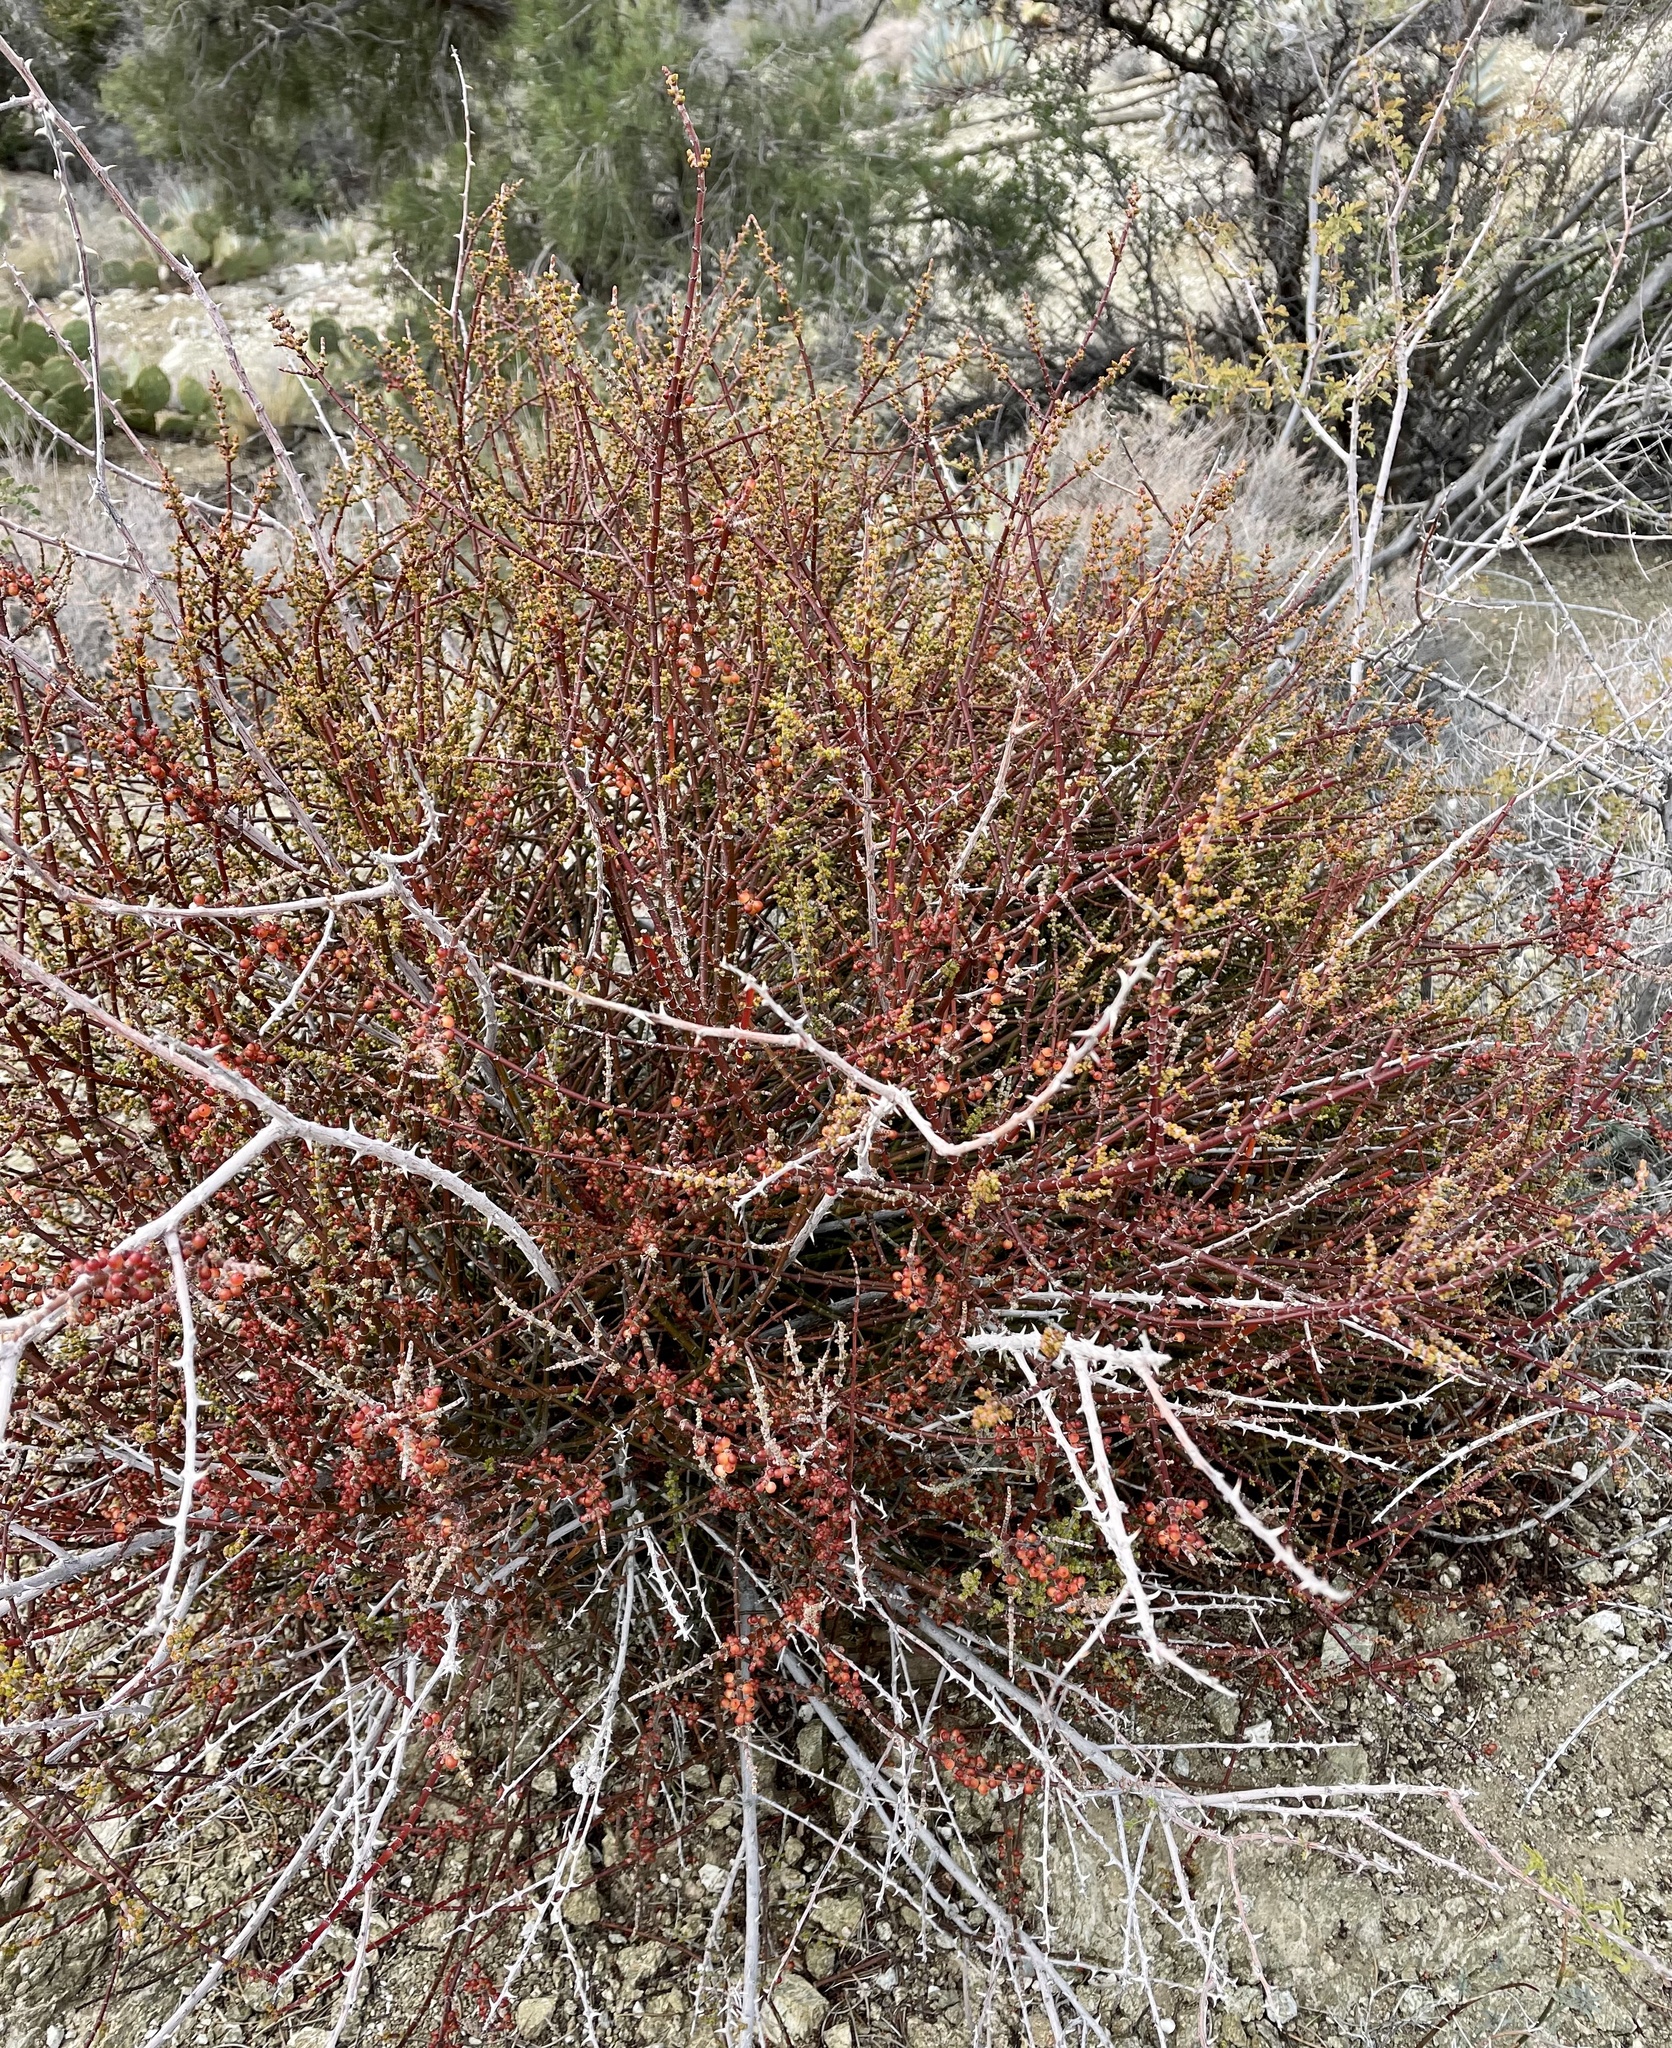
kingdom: Plantae
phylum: Tracheophyta
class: Magnoliopsida
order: Santalales
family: Viscaceae
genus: Phoradendron
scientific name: Phoradendron californicum
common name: Acacia mistletoe
